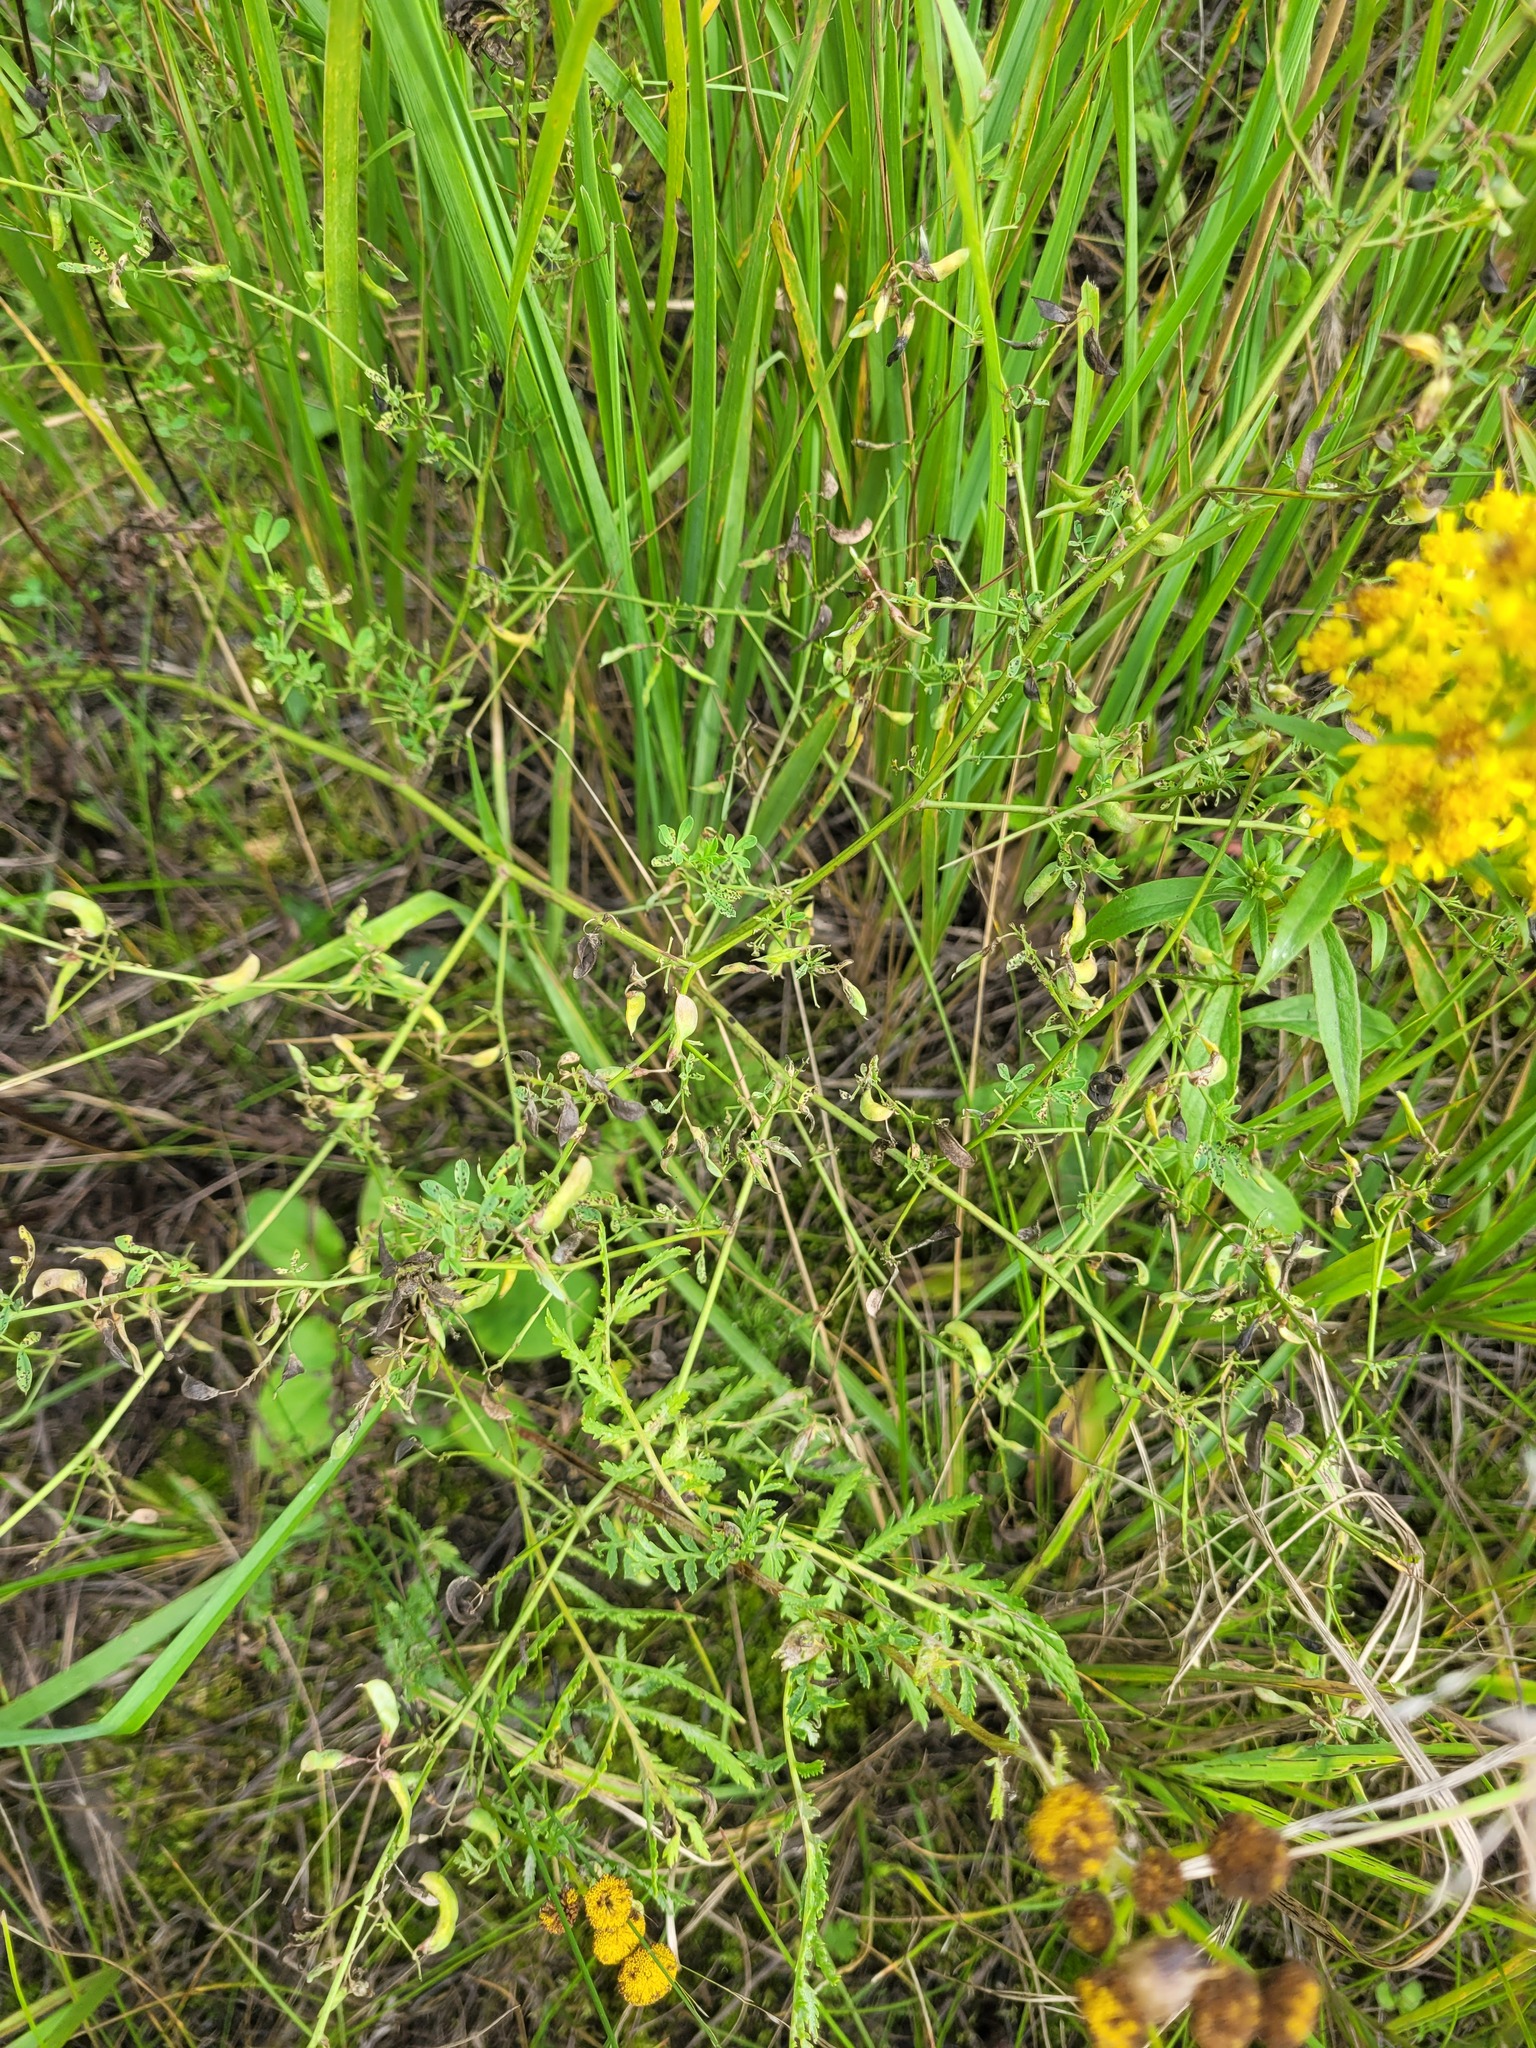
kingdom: Plantae
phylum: Tracheophyta
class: Magnoliopsida
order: Fabales
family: Fabaceae
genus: Medicago
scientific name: Medicago falcata
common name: Sickle medick
